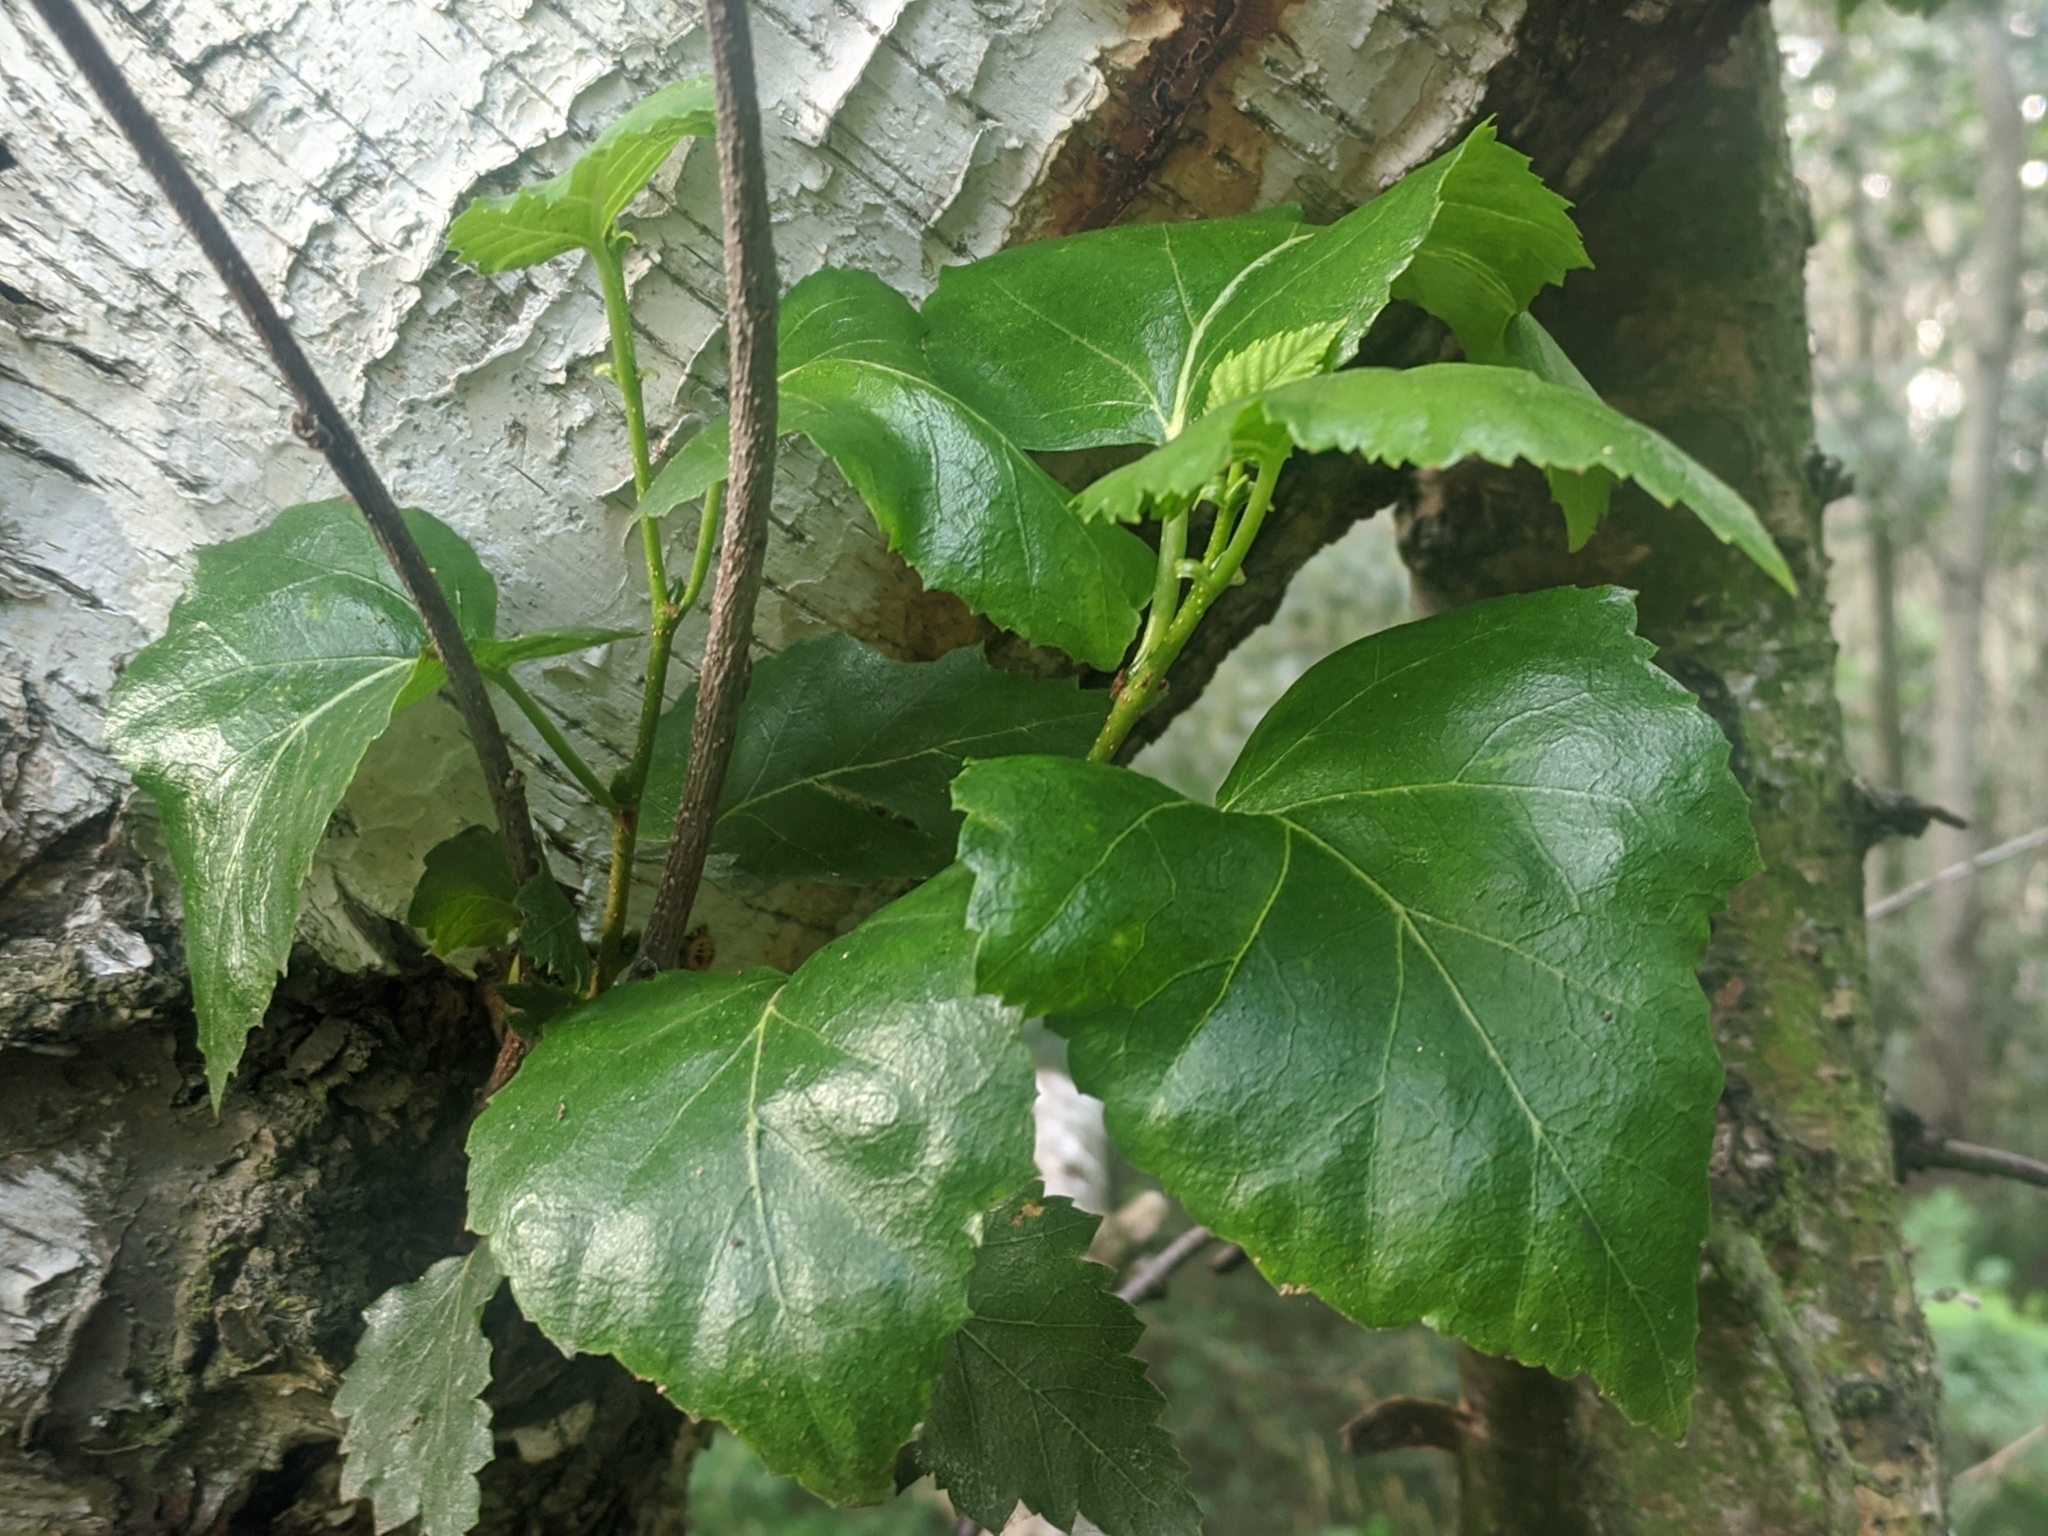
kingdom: Plantae
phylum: Tracheophyta
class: Magnoliopsida
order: Fagales
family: Betulaceae
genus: Betula
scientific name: Betula pendula
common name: Silver birch
